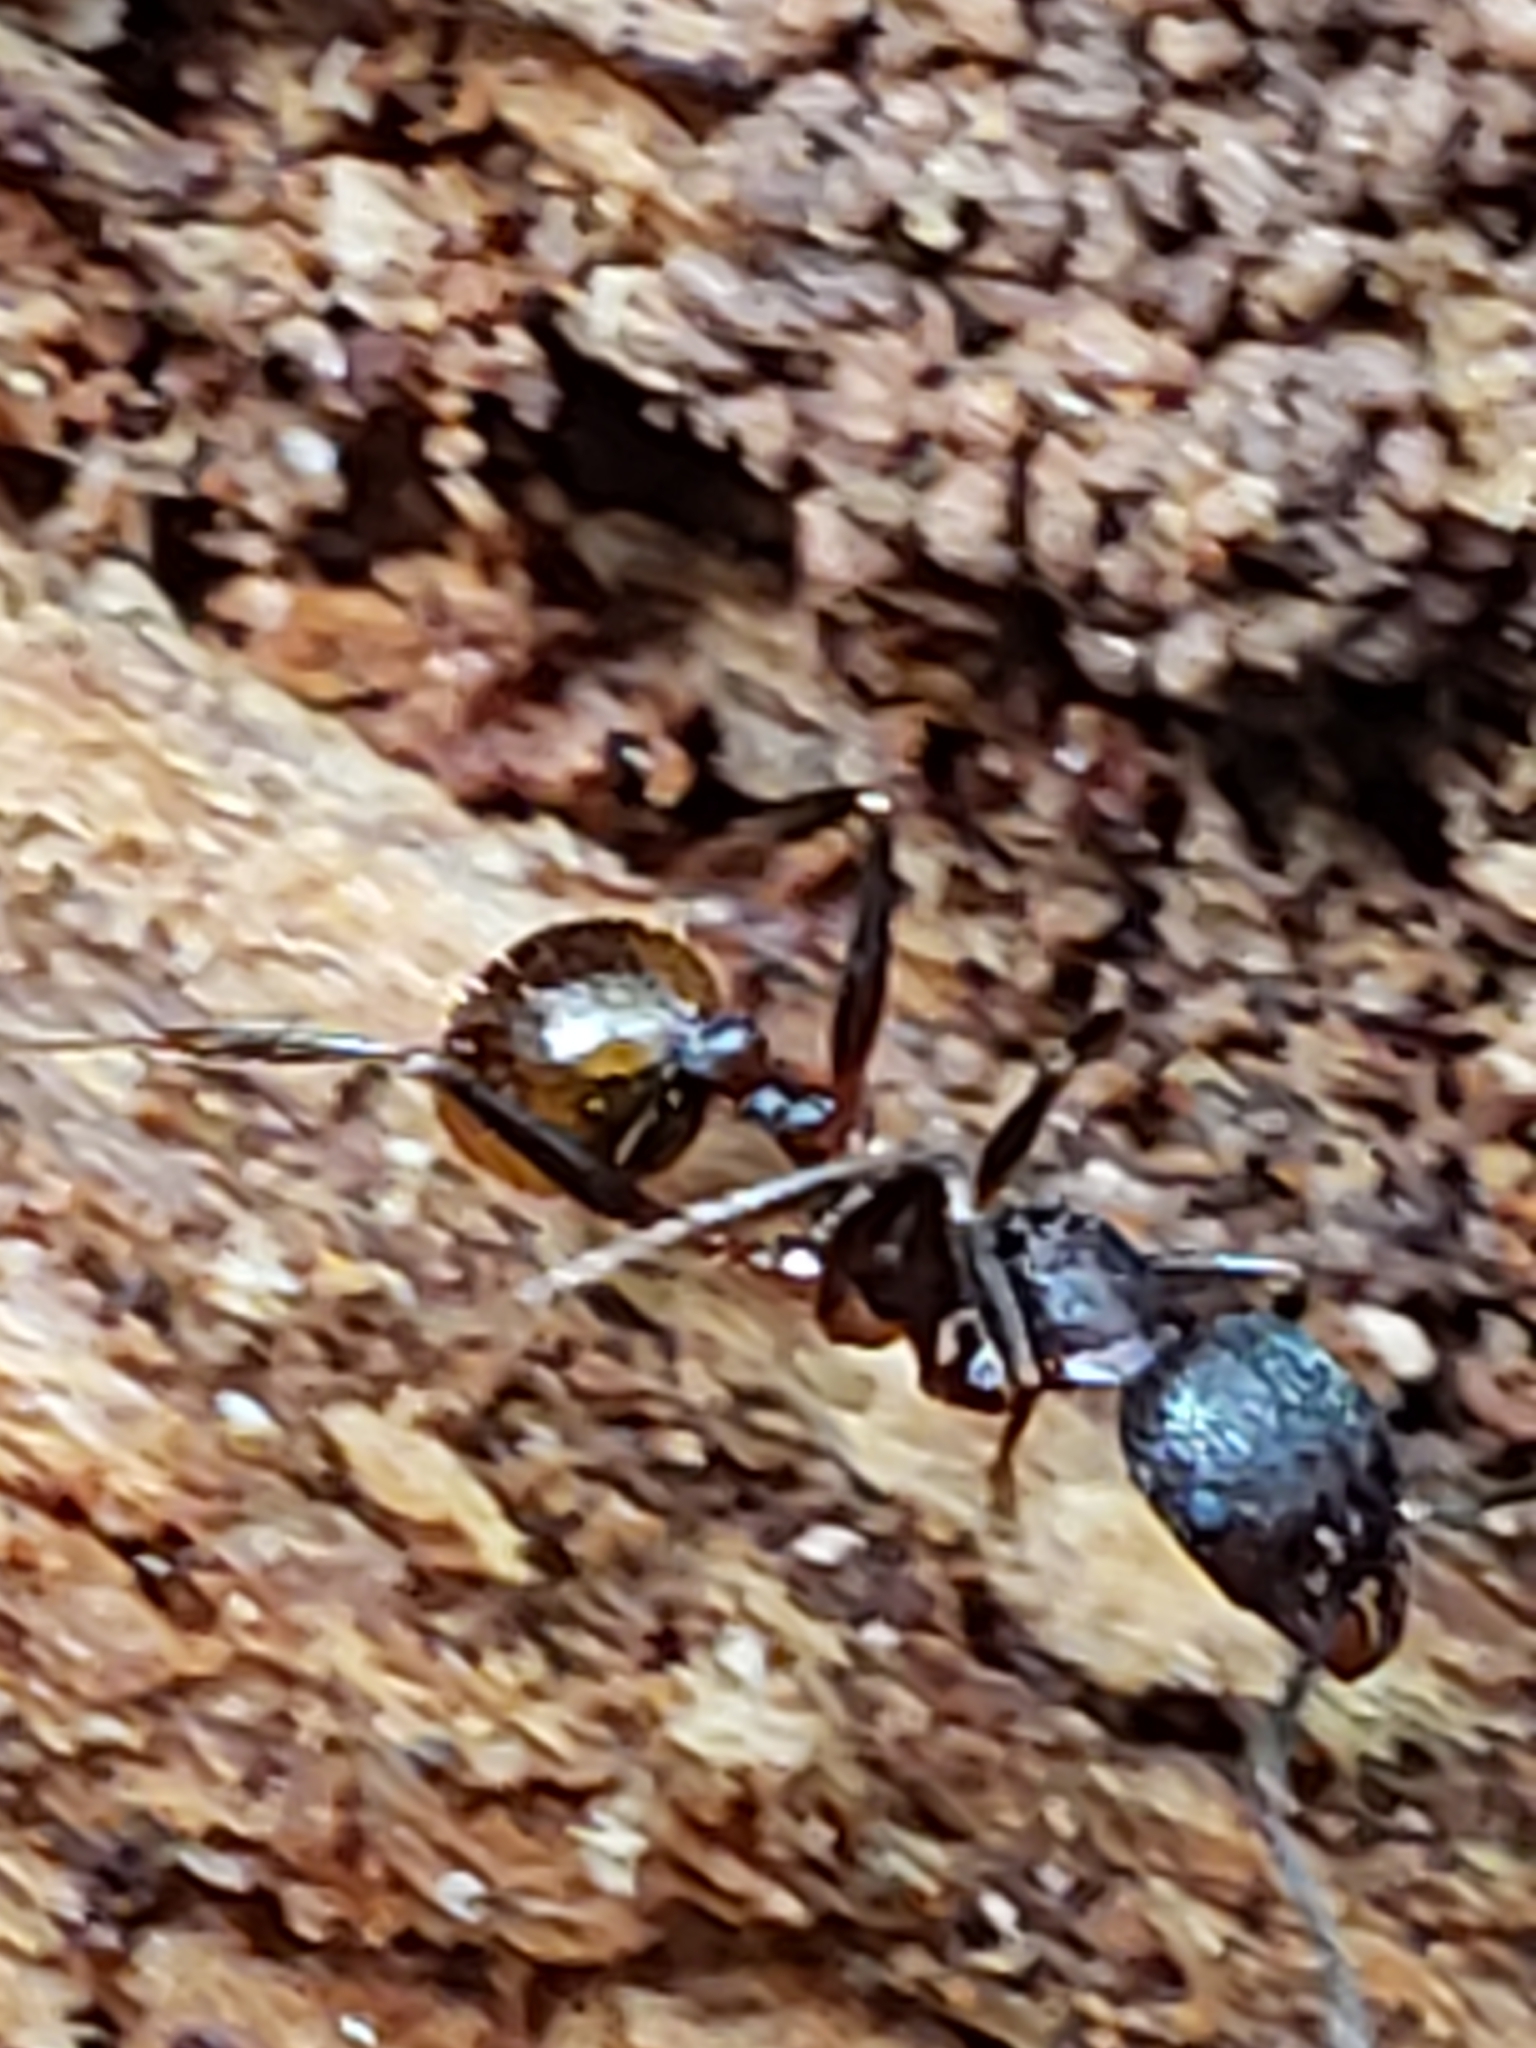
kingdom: Animalia
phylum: Arthropoda
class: Insecta
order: Hymenoptera
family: Formicidae
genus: Aphaenogaster
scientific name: Aphaenogaster fulva
